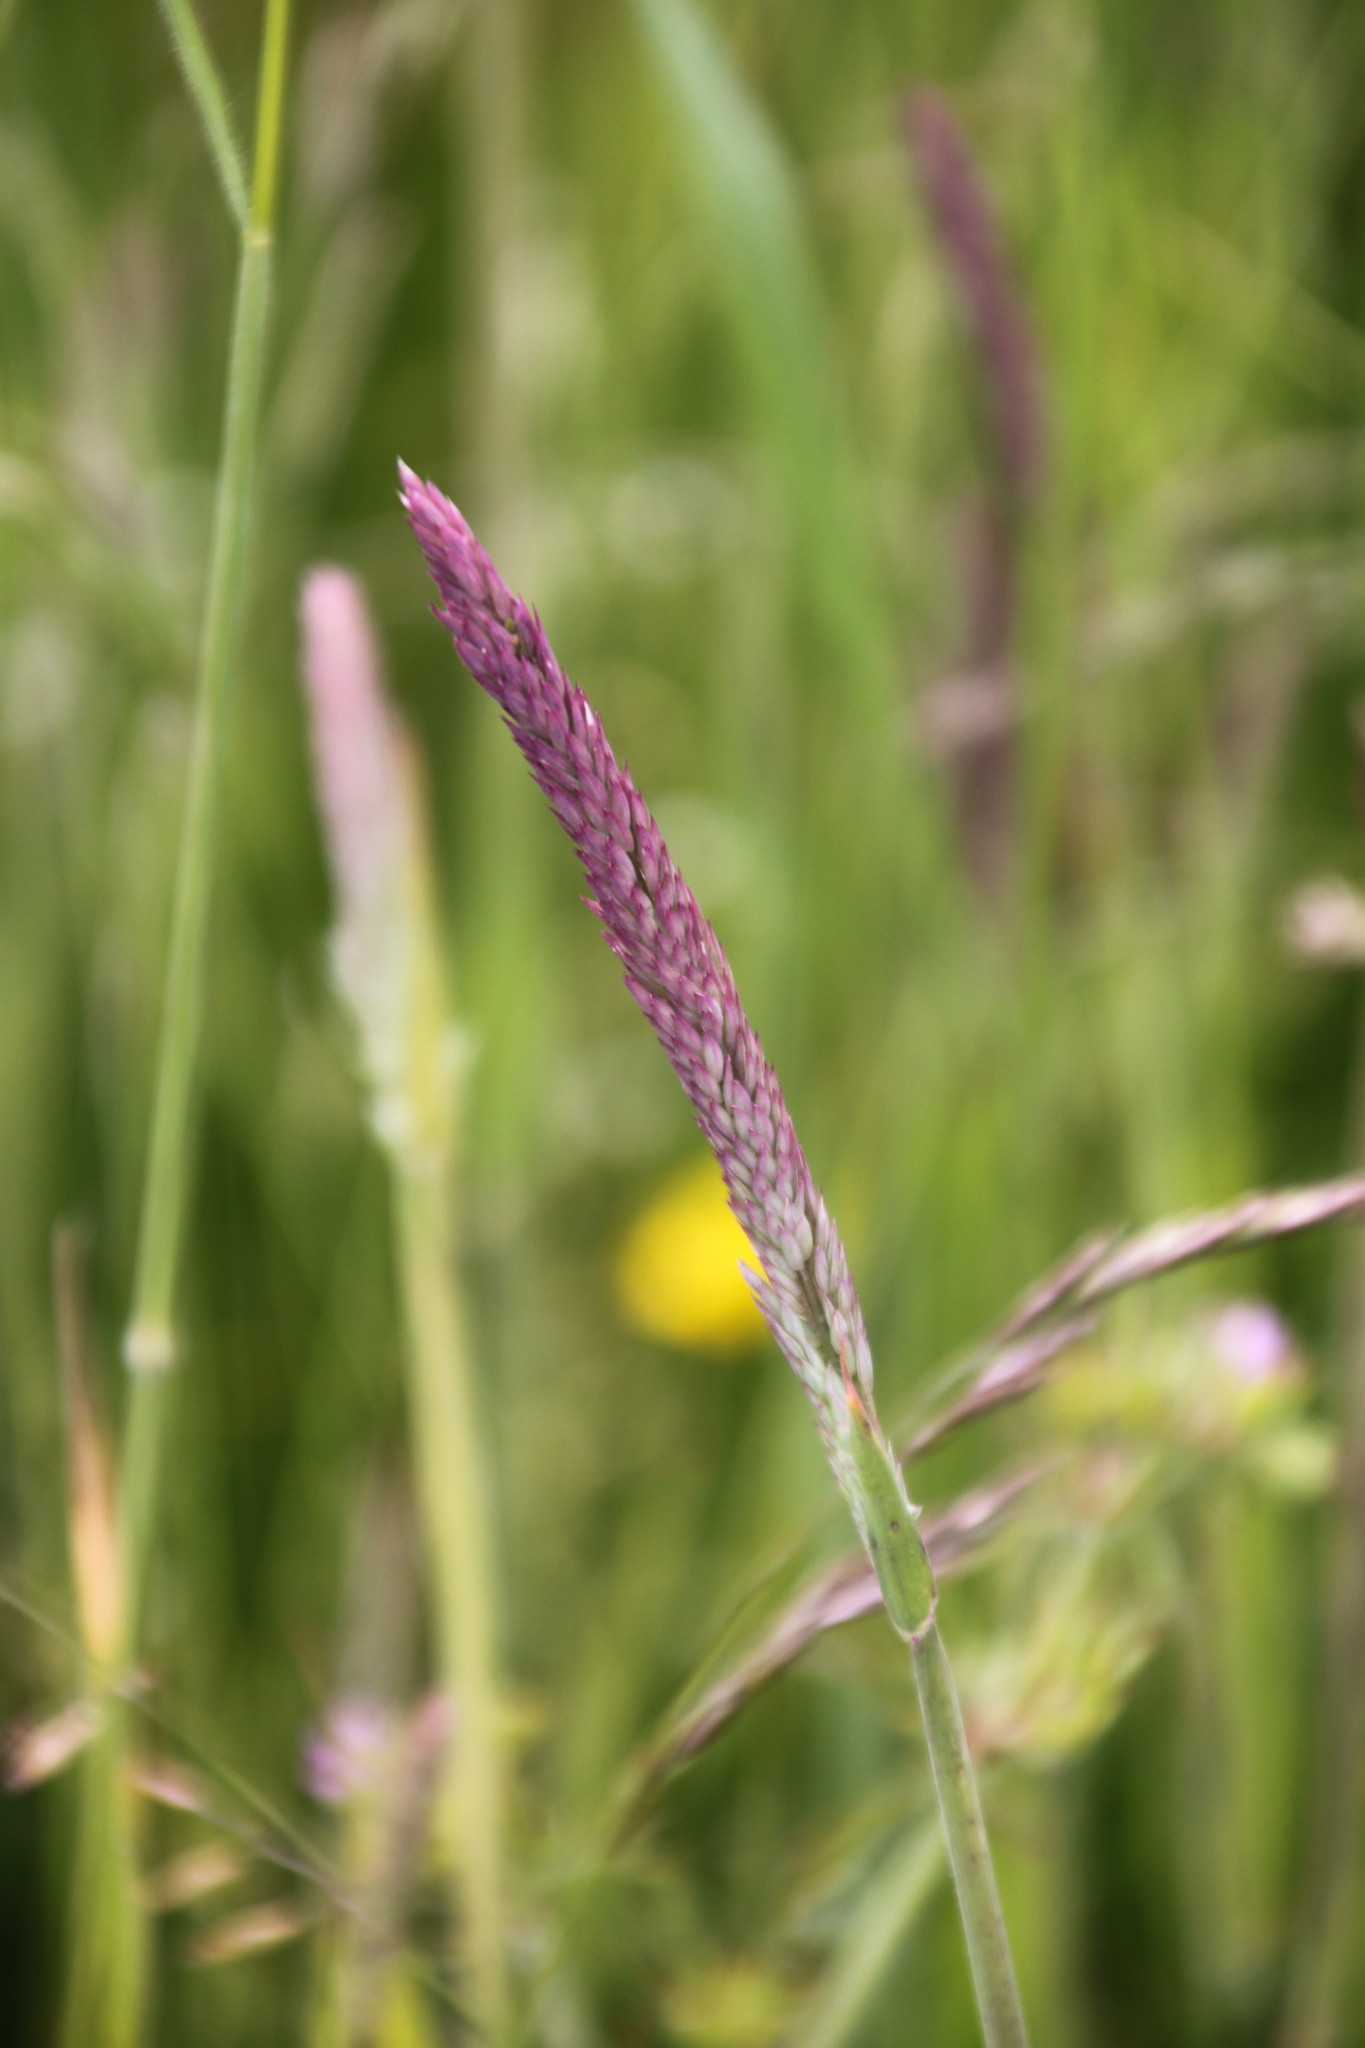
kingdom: Plantae
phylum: Tracheophyta
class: Liliopsida
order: Poales
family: Poaceae
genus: Holcus
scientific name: Holcus lanatus
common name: Yorkshire-fog
